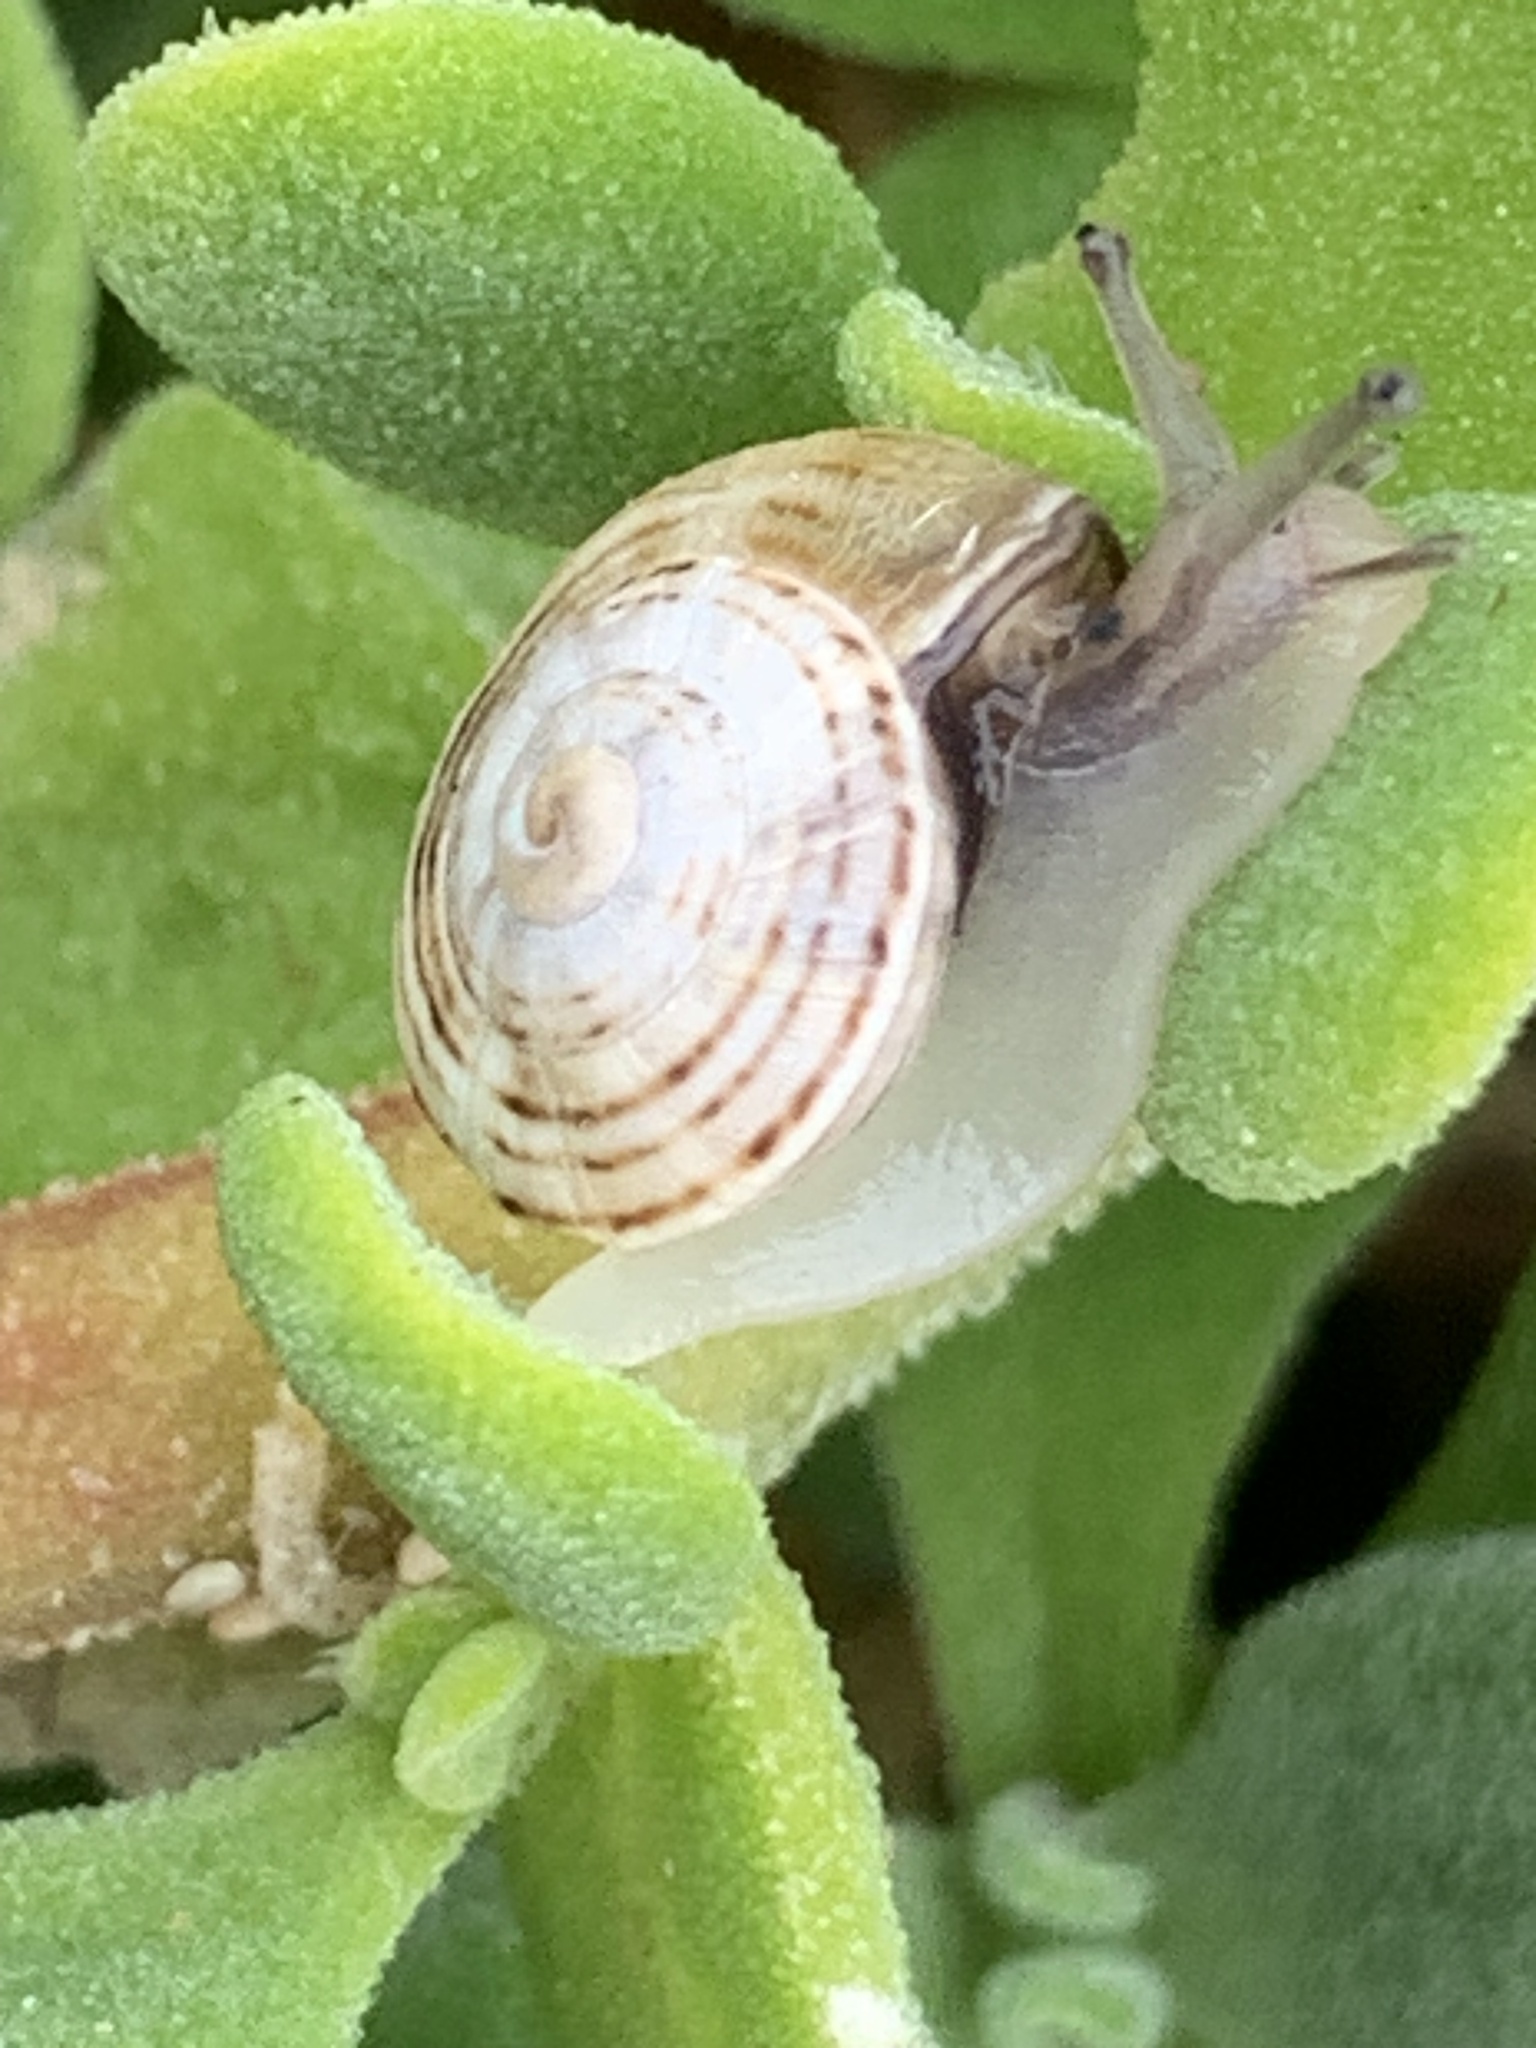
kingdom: Animalia
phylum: Mollusca
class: Gastropoda
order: Stylommatophora
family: Helicidae
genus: Theba
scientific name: Theba pisana
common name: White snail
